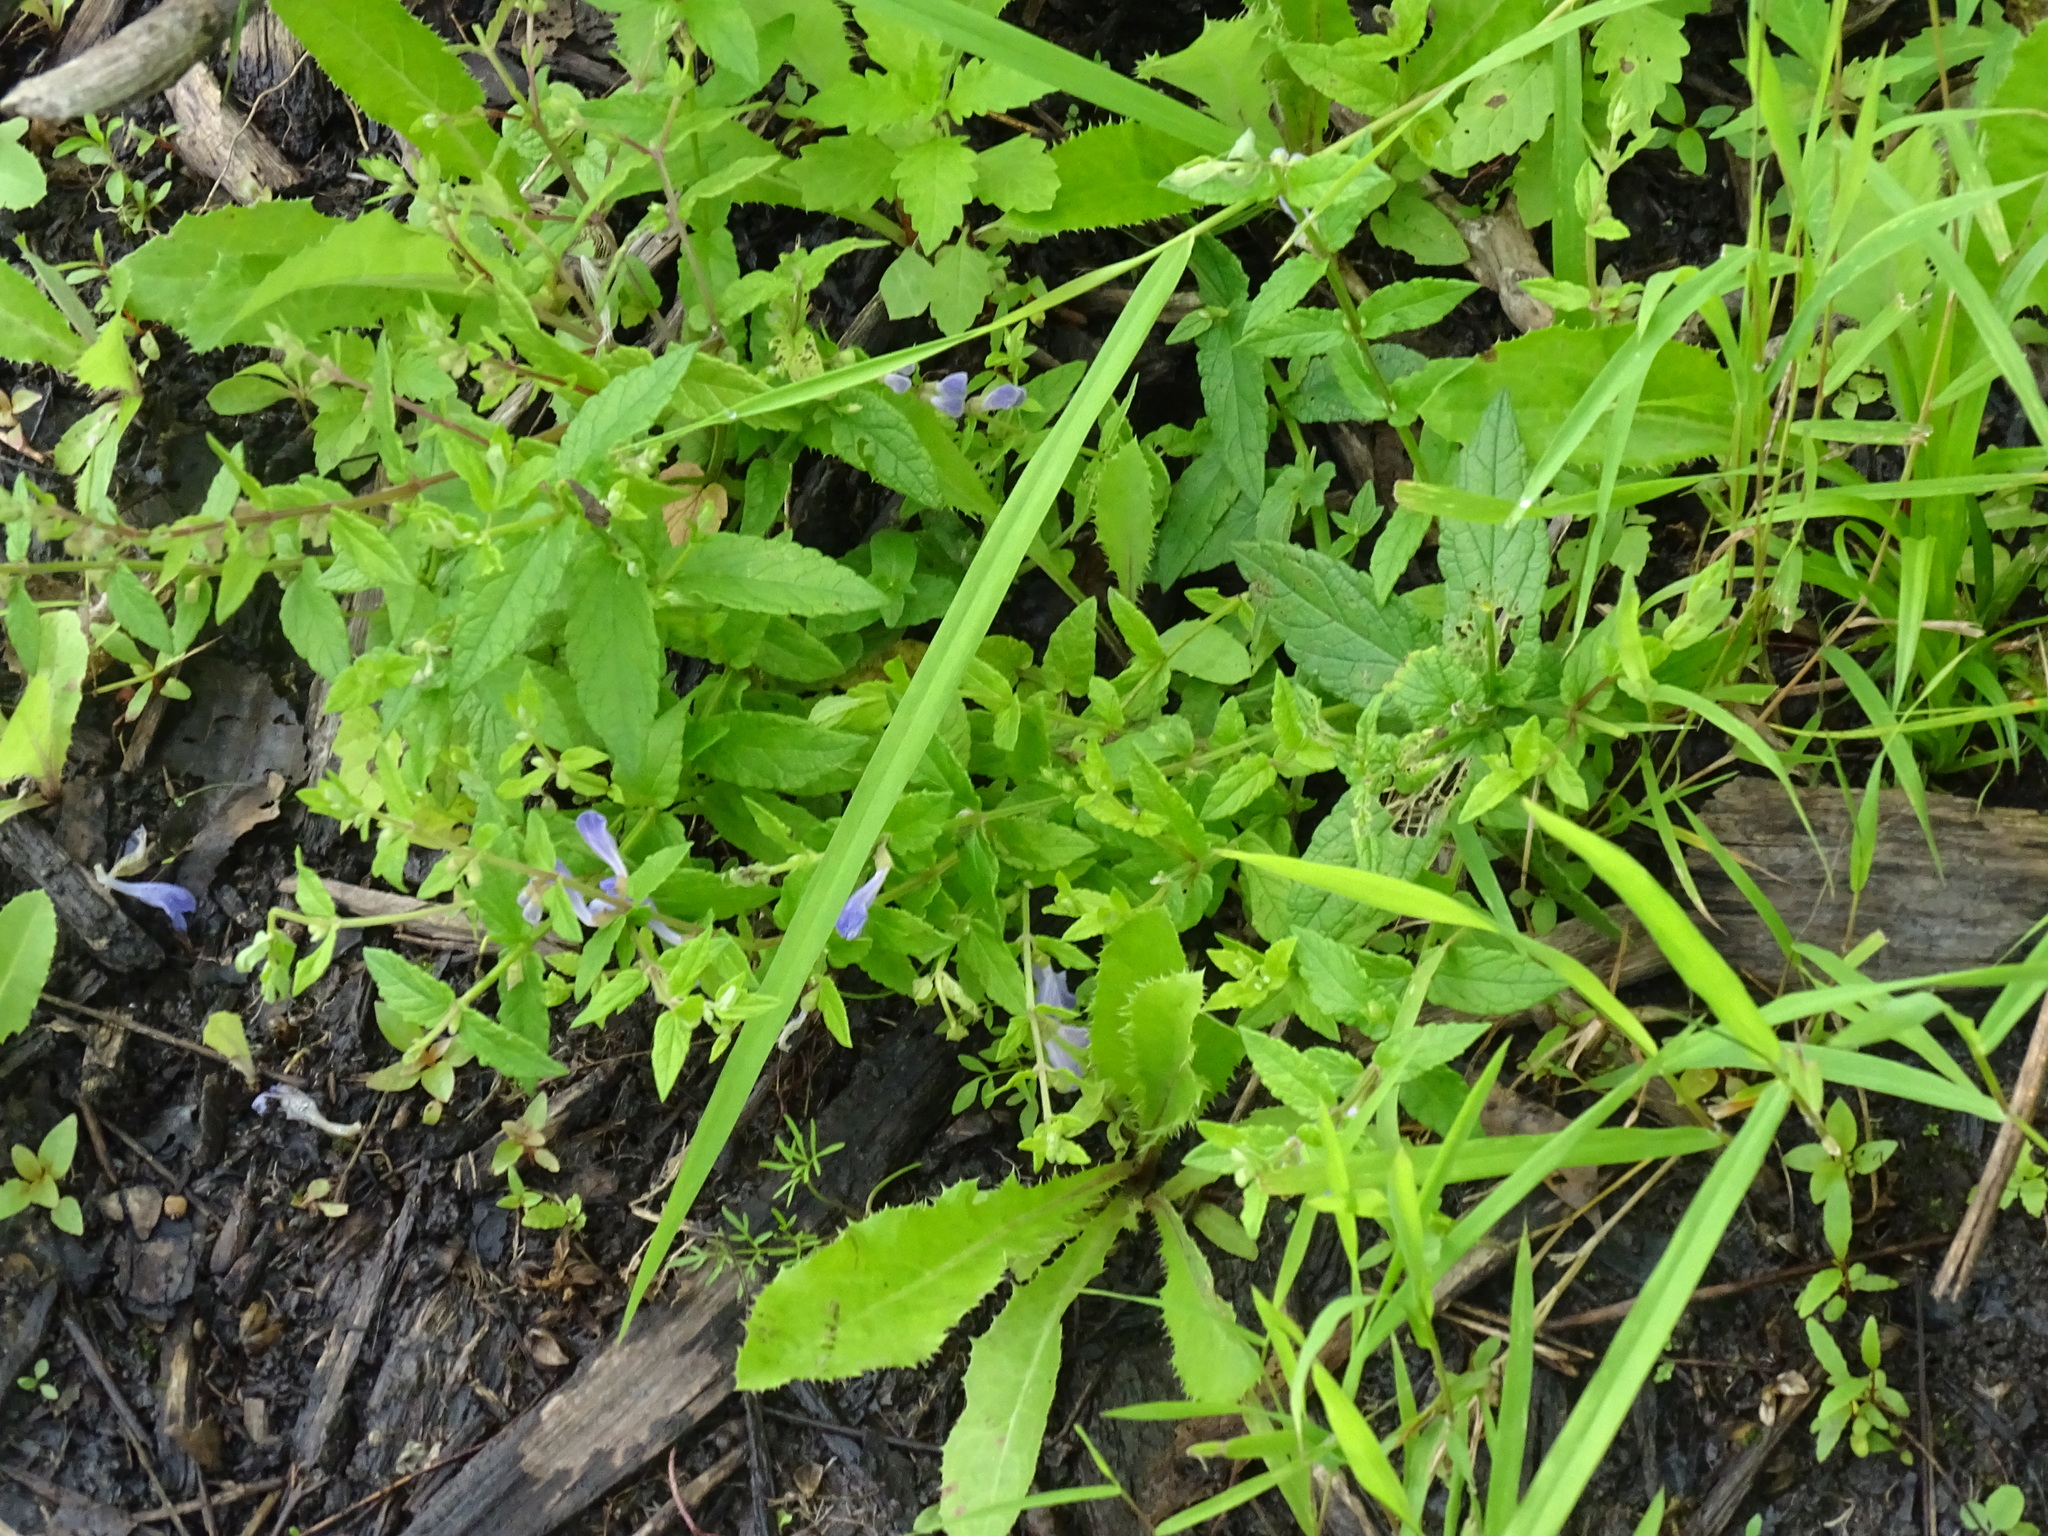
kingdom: Plantae
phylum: Tracheophyta
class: Magnoliopsida
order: Lamiales
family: Lamiaceae
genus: Scutellaria
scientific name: Scutellaria galericulata
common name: Skullcap
